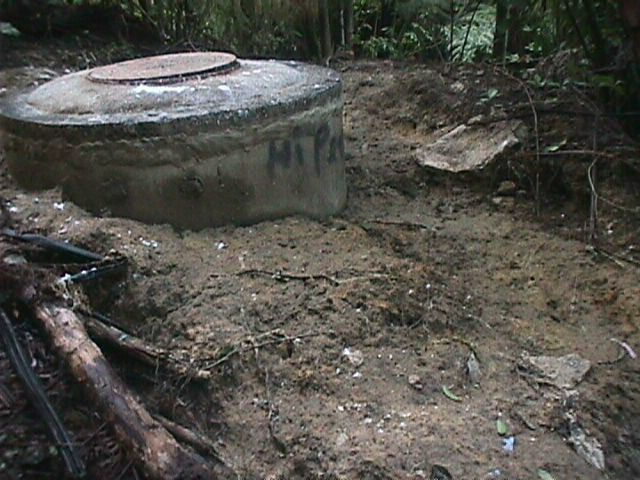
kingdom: Plantae
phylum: Tracheophyta
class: Magnoliopsida
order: Apiales
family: Araliaceae
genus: Schefflera
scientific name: Schefflera digitata
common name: Pate
